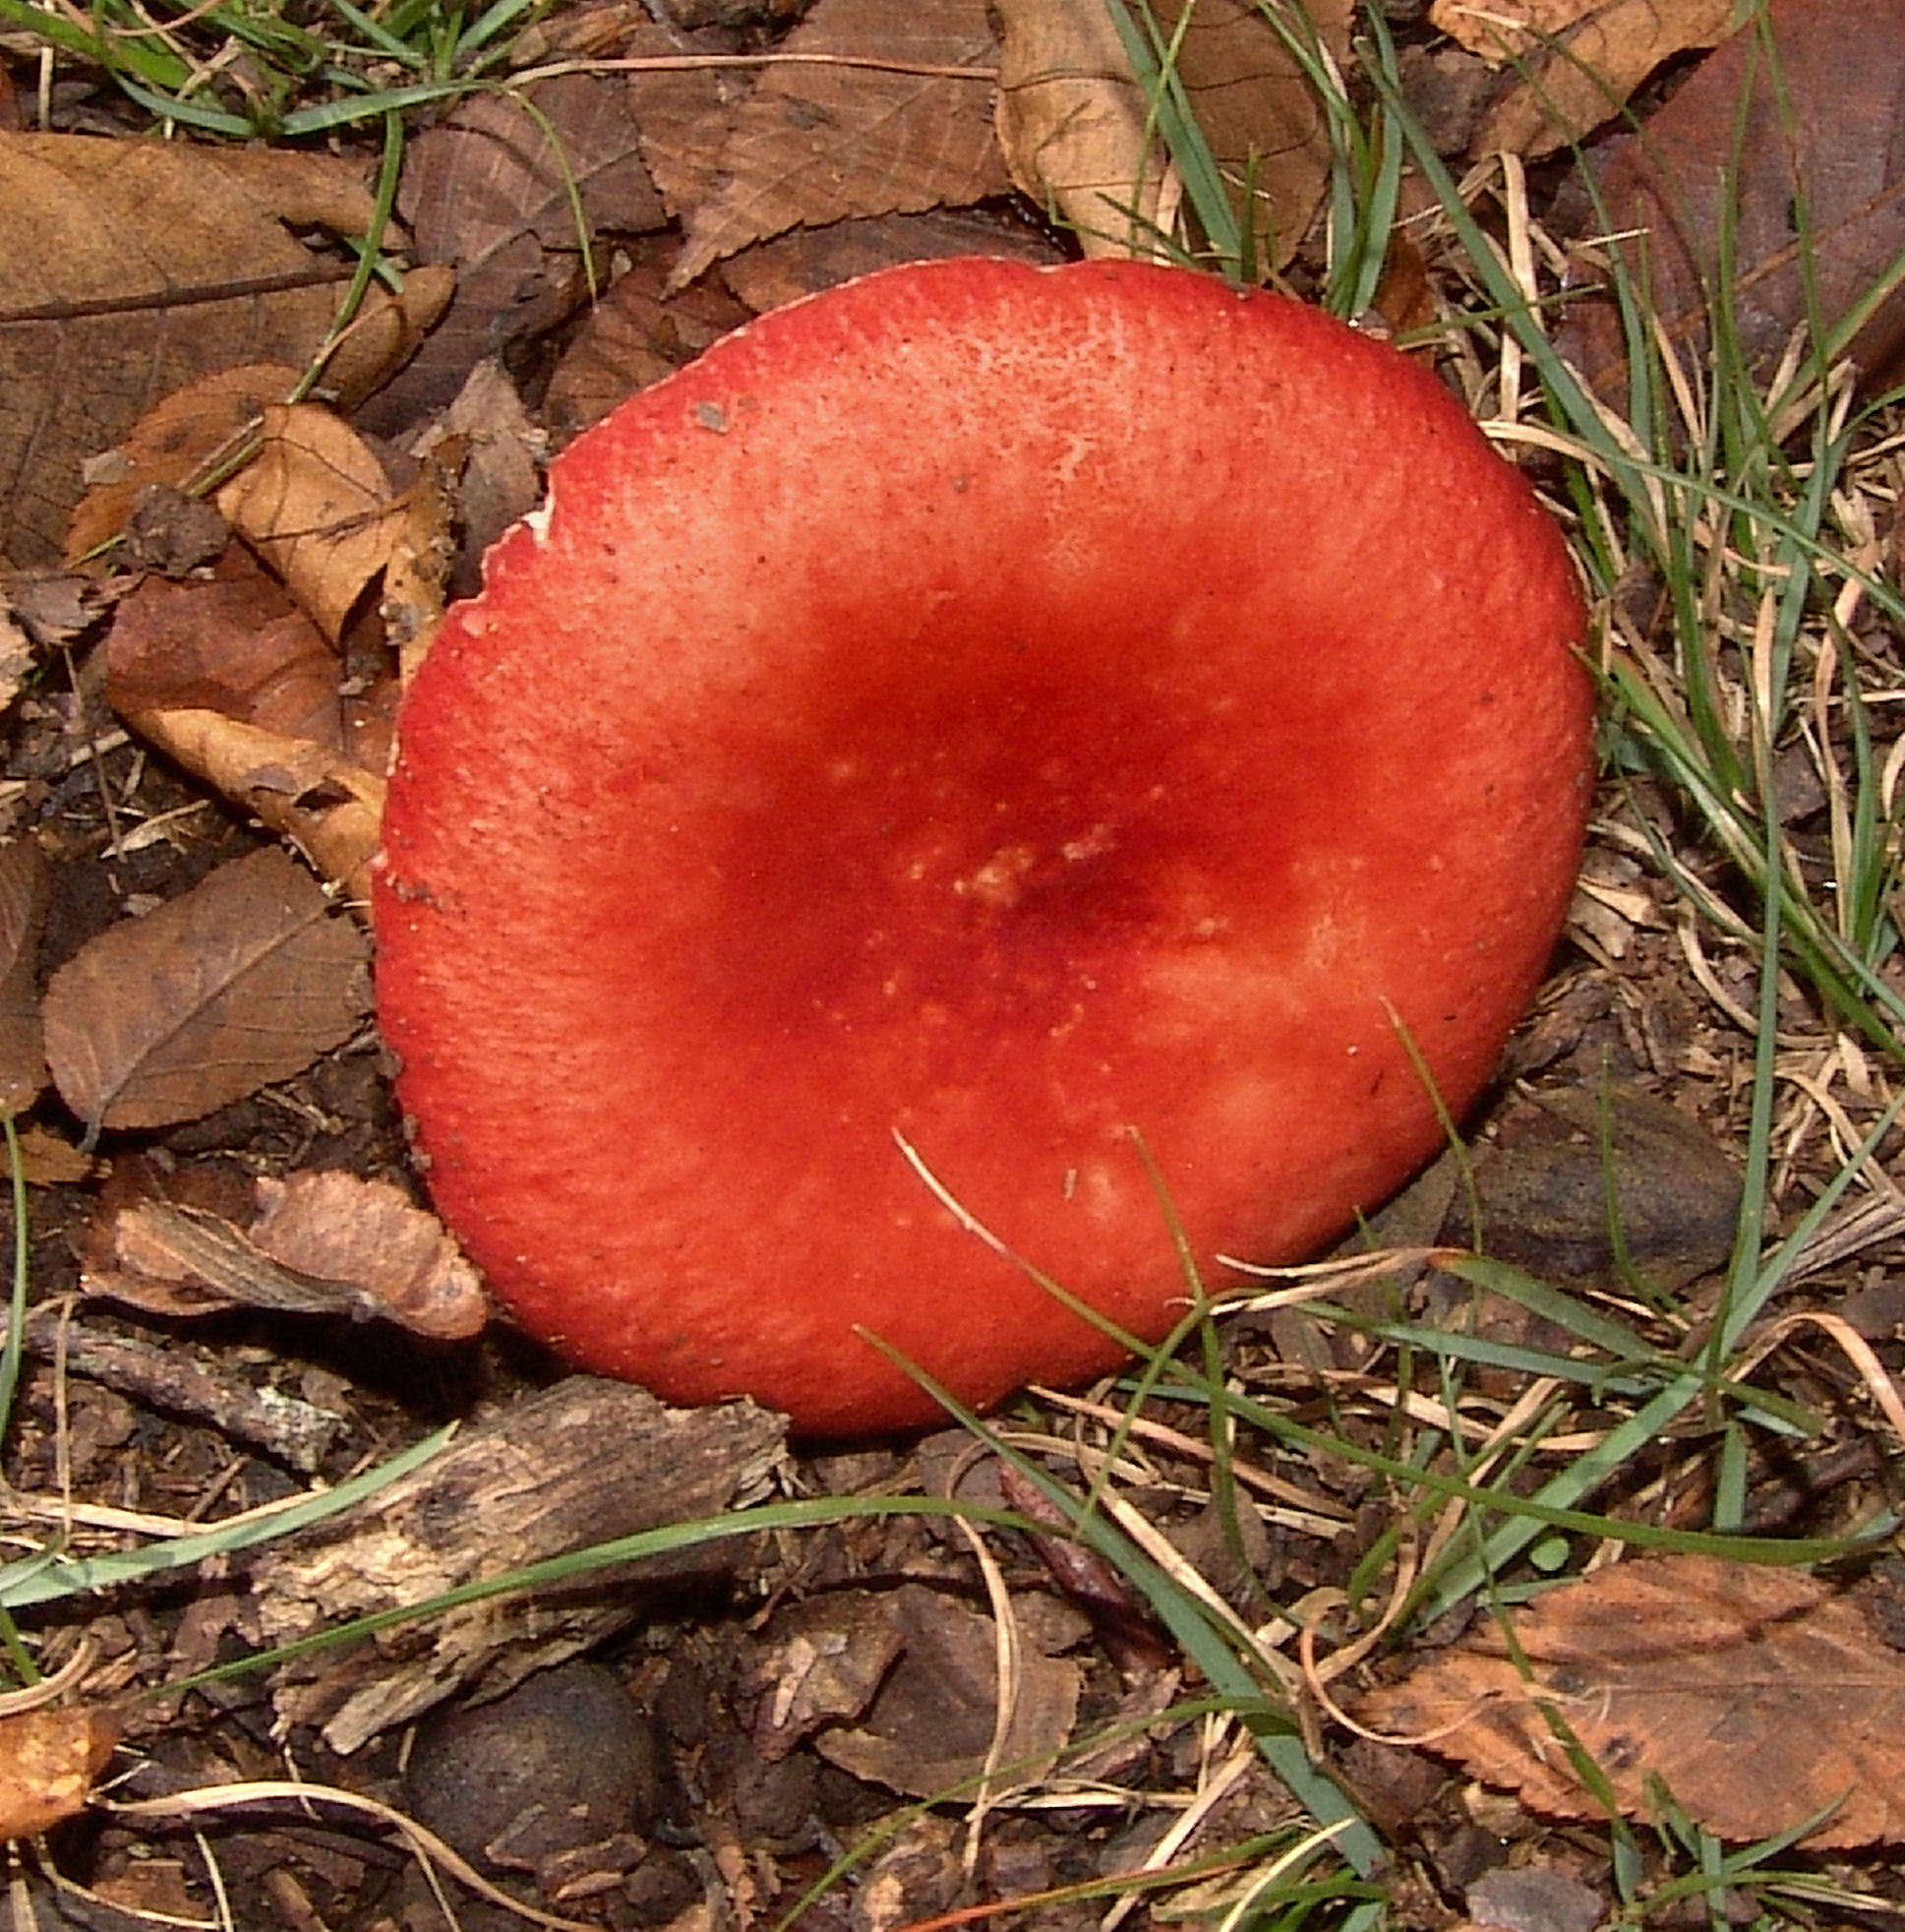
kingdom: Fungi
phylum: Basidiomycota
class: Agaricomycetes
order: Russulales
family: Russulaceae
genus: Russula
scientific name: Russula
